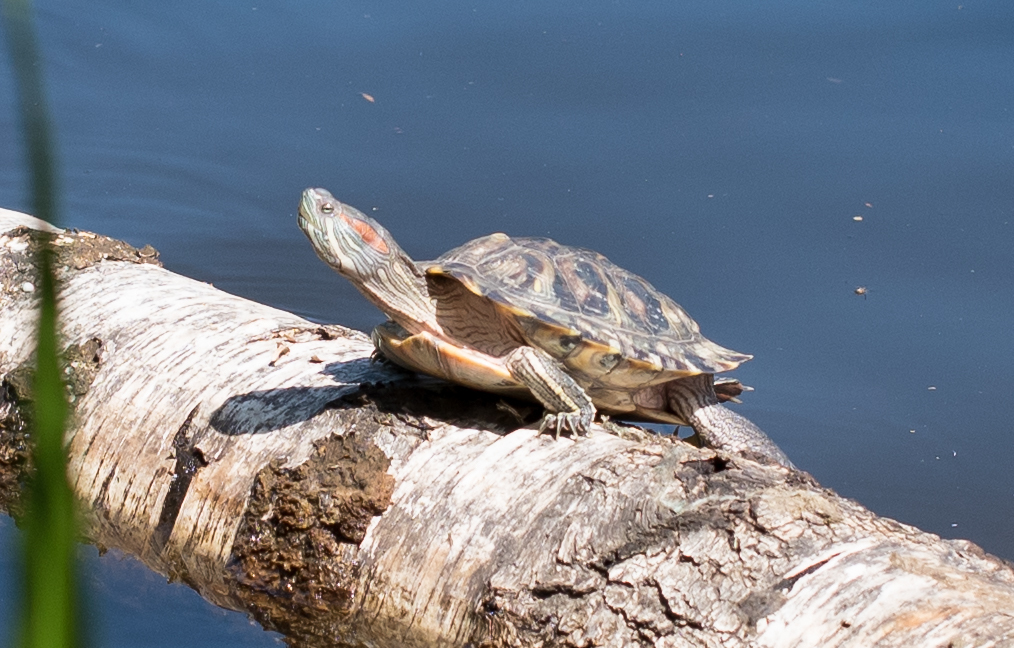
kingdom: Animalia
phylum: Chordata
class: Testudines
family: Emydidae
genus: Trachemys
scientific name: Trachemys scripta
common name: Slider
